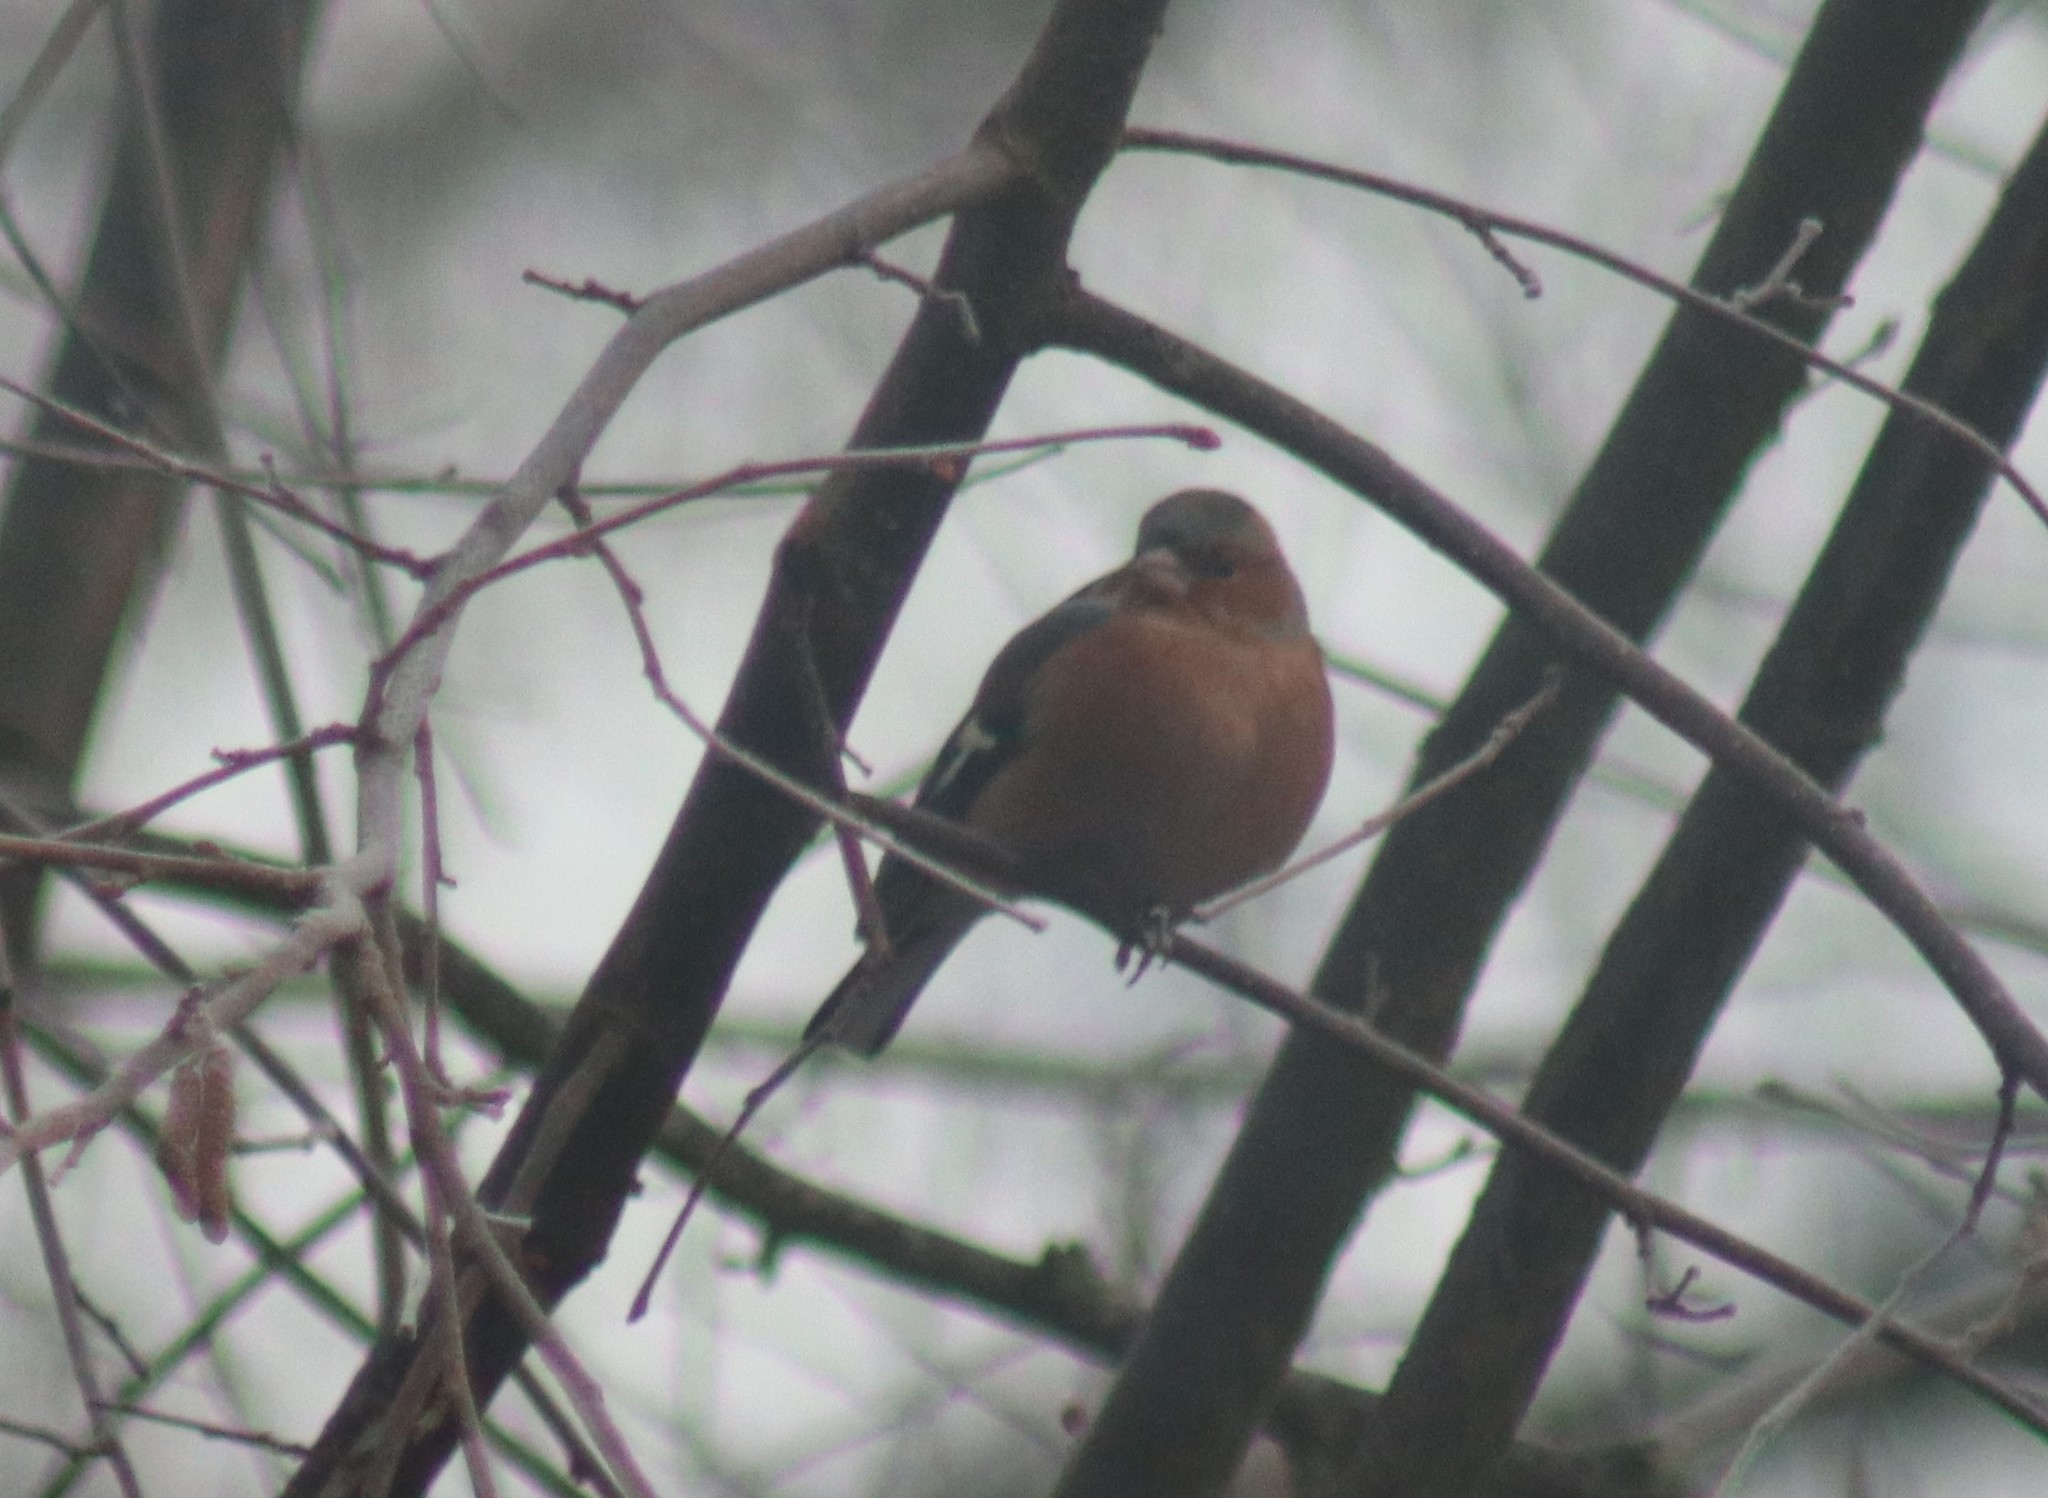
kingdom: Animalia
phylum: Chordata
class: Aves
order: Passeriformes
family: Fringillidae
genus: Fringilla
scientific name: Fringilla coelebs
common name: Common chaffinch
